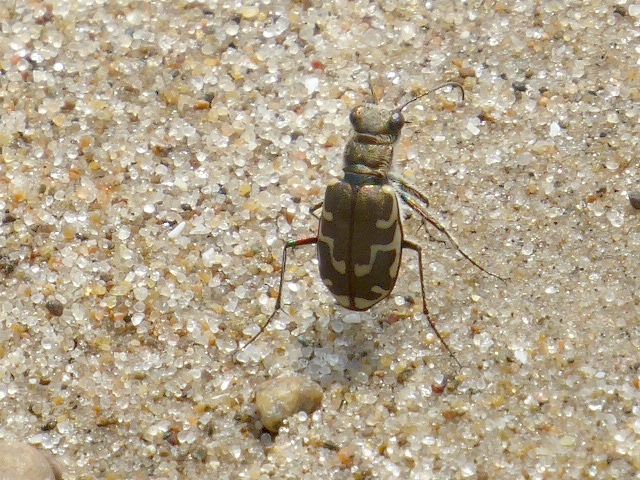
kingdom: Animalia
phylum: Arthropoda
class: Insecta
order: Coleoptera
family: Carabidae
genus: Cicindela
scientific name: Cicindela repanda
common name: Bronzed tiger beetle
